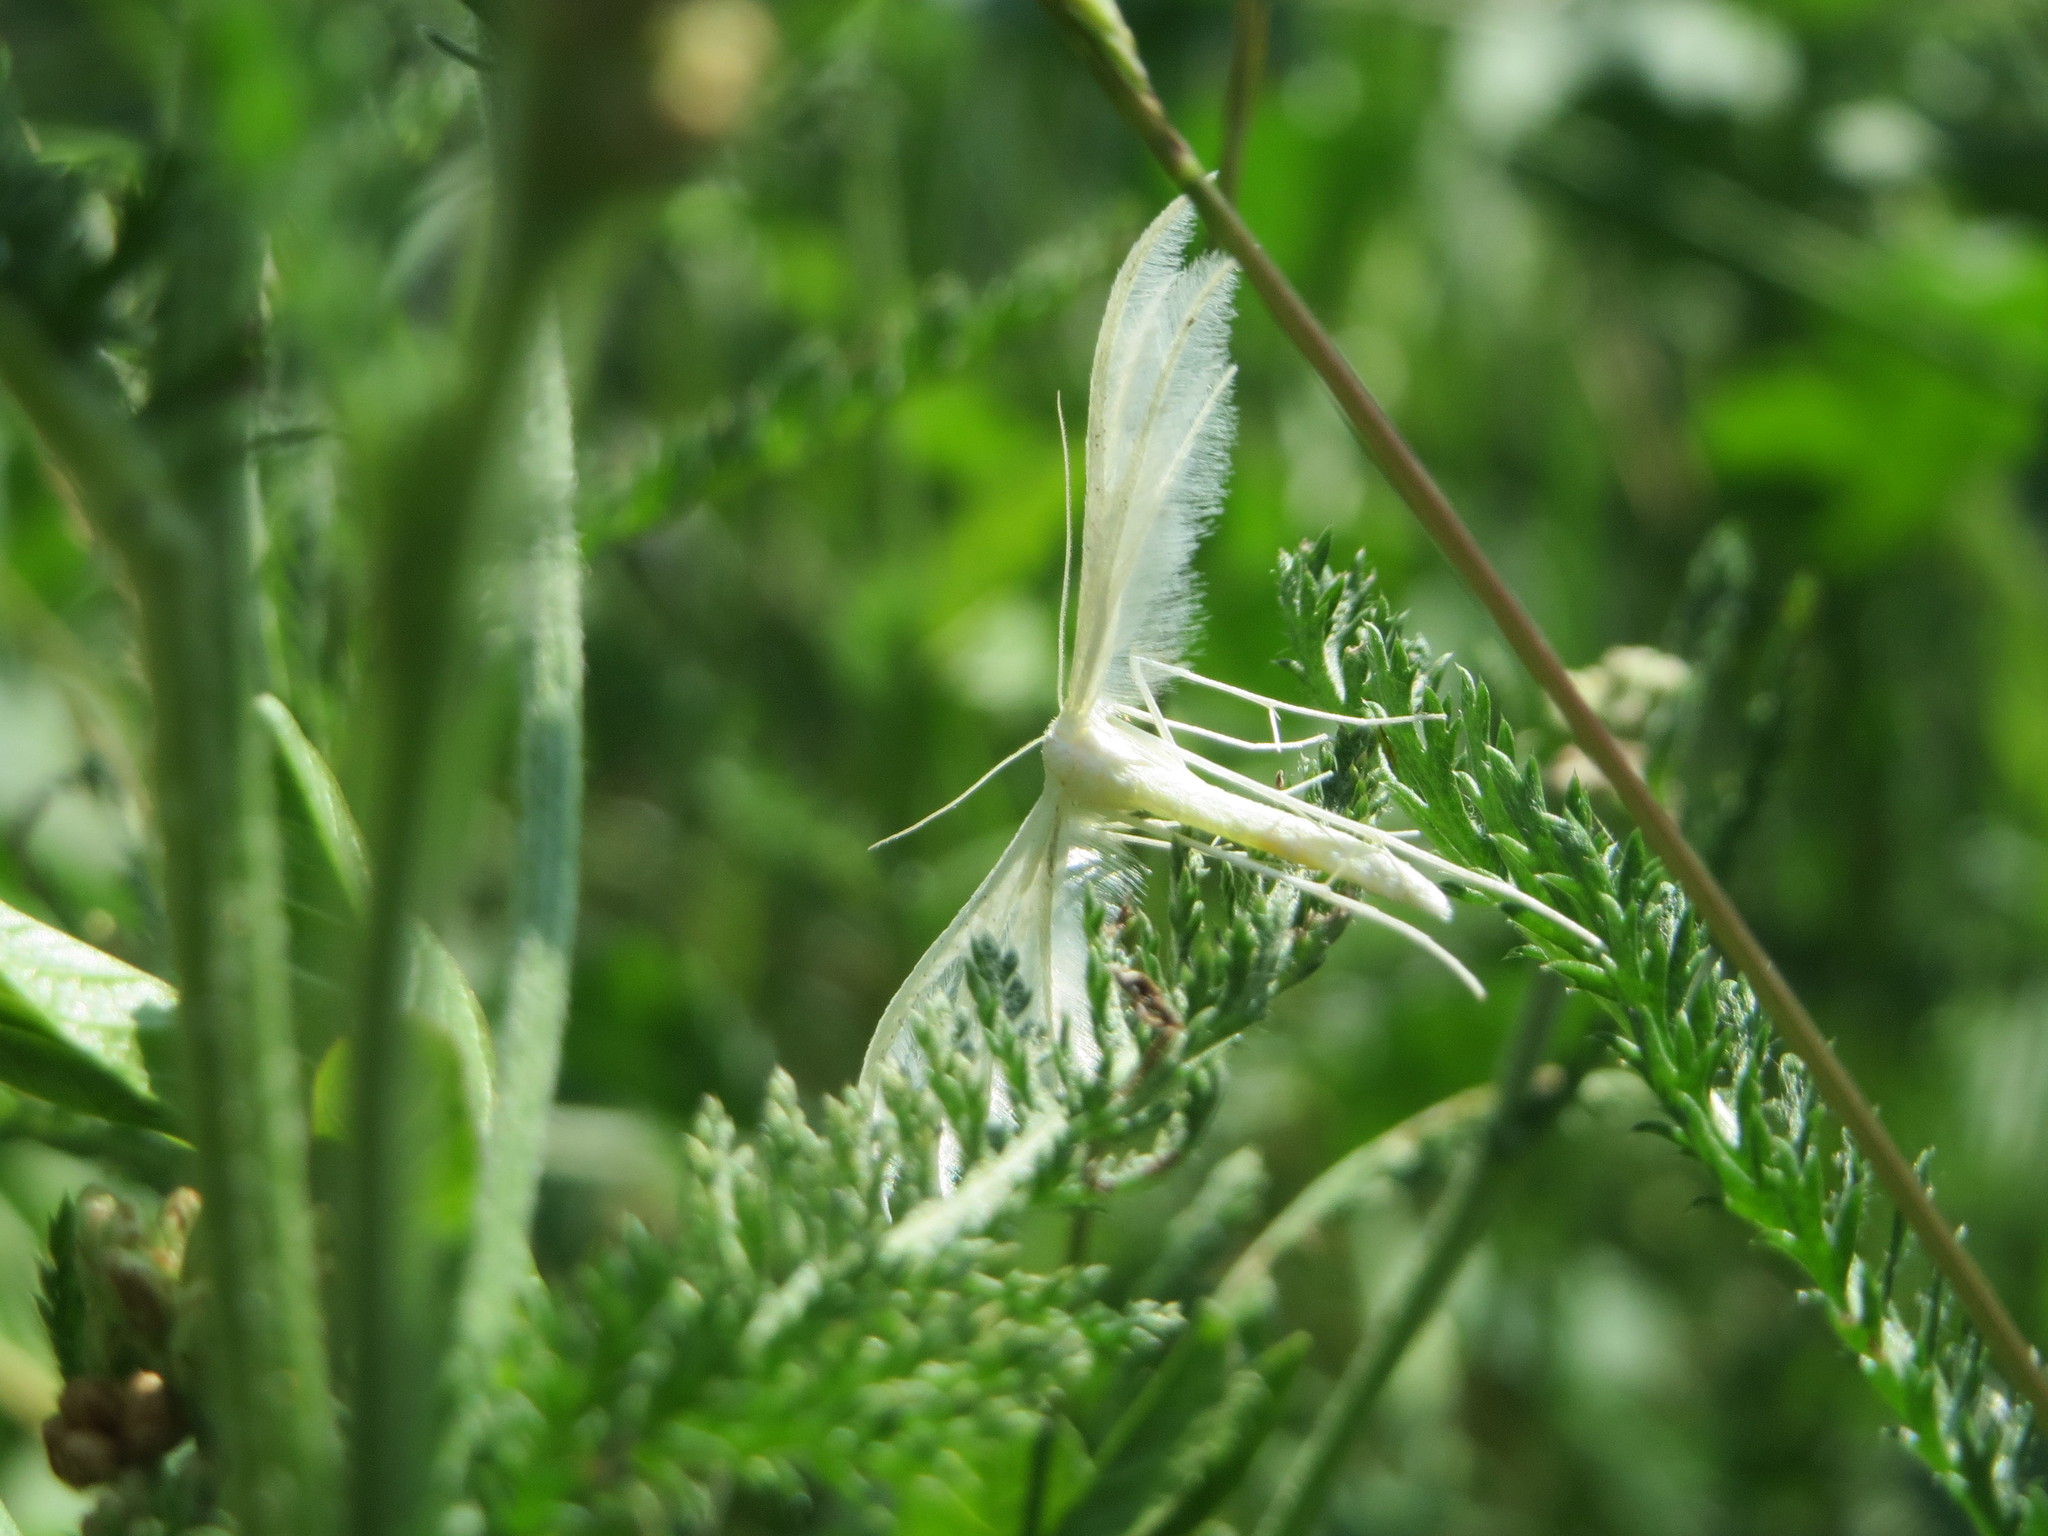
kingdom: Animalia
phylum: Arthropoda
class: Insecta
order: Lepidoptera
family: Pterophoridae
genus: Pterophorus
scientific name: Pterophorus pentadactyla
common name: White plume moth
